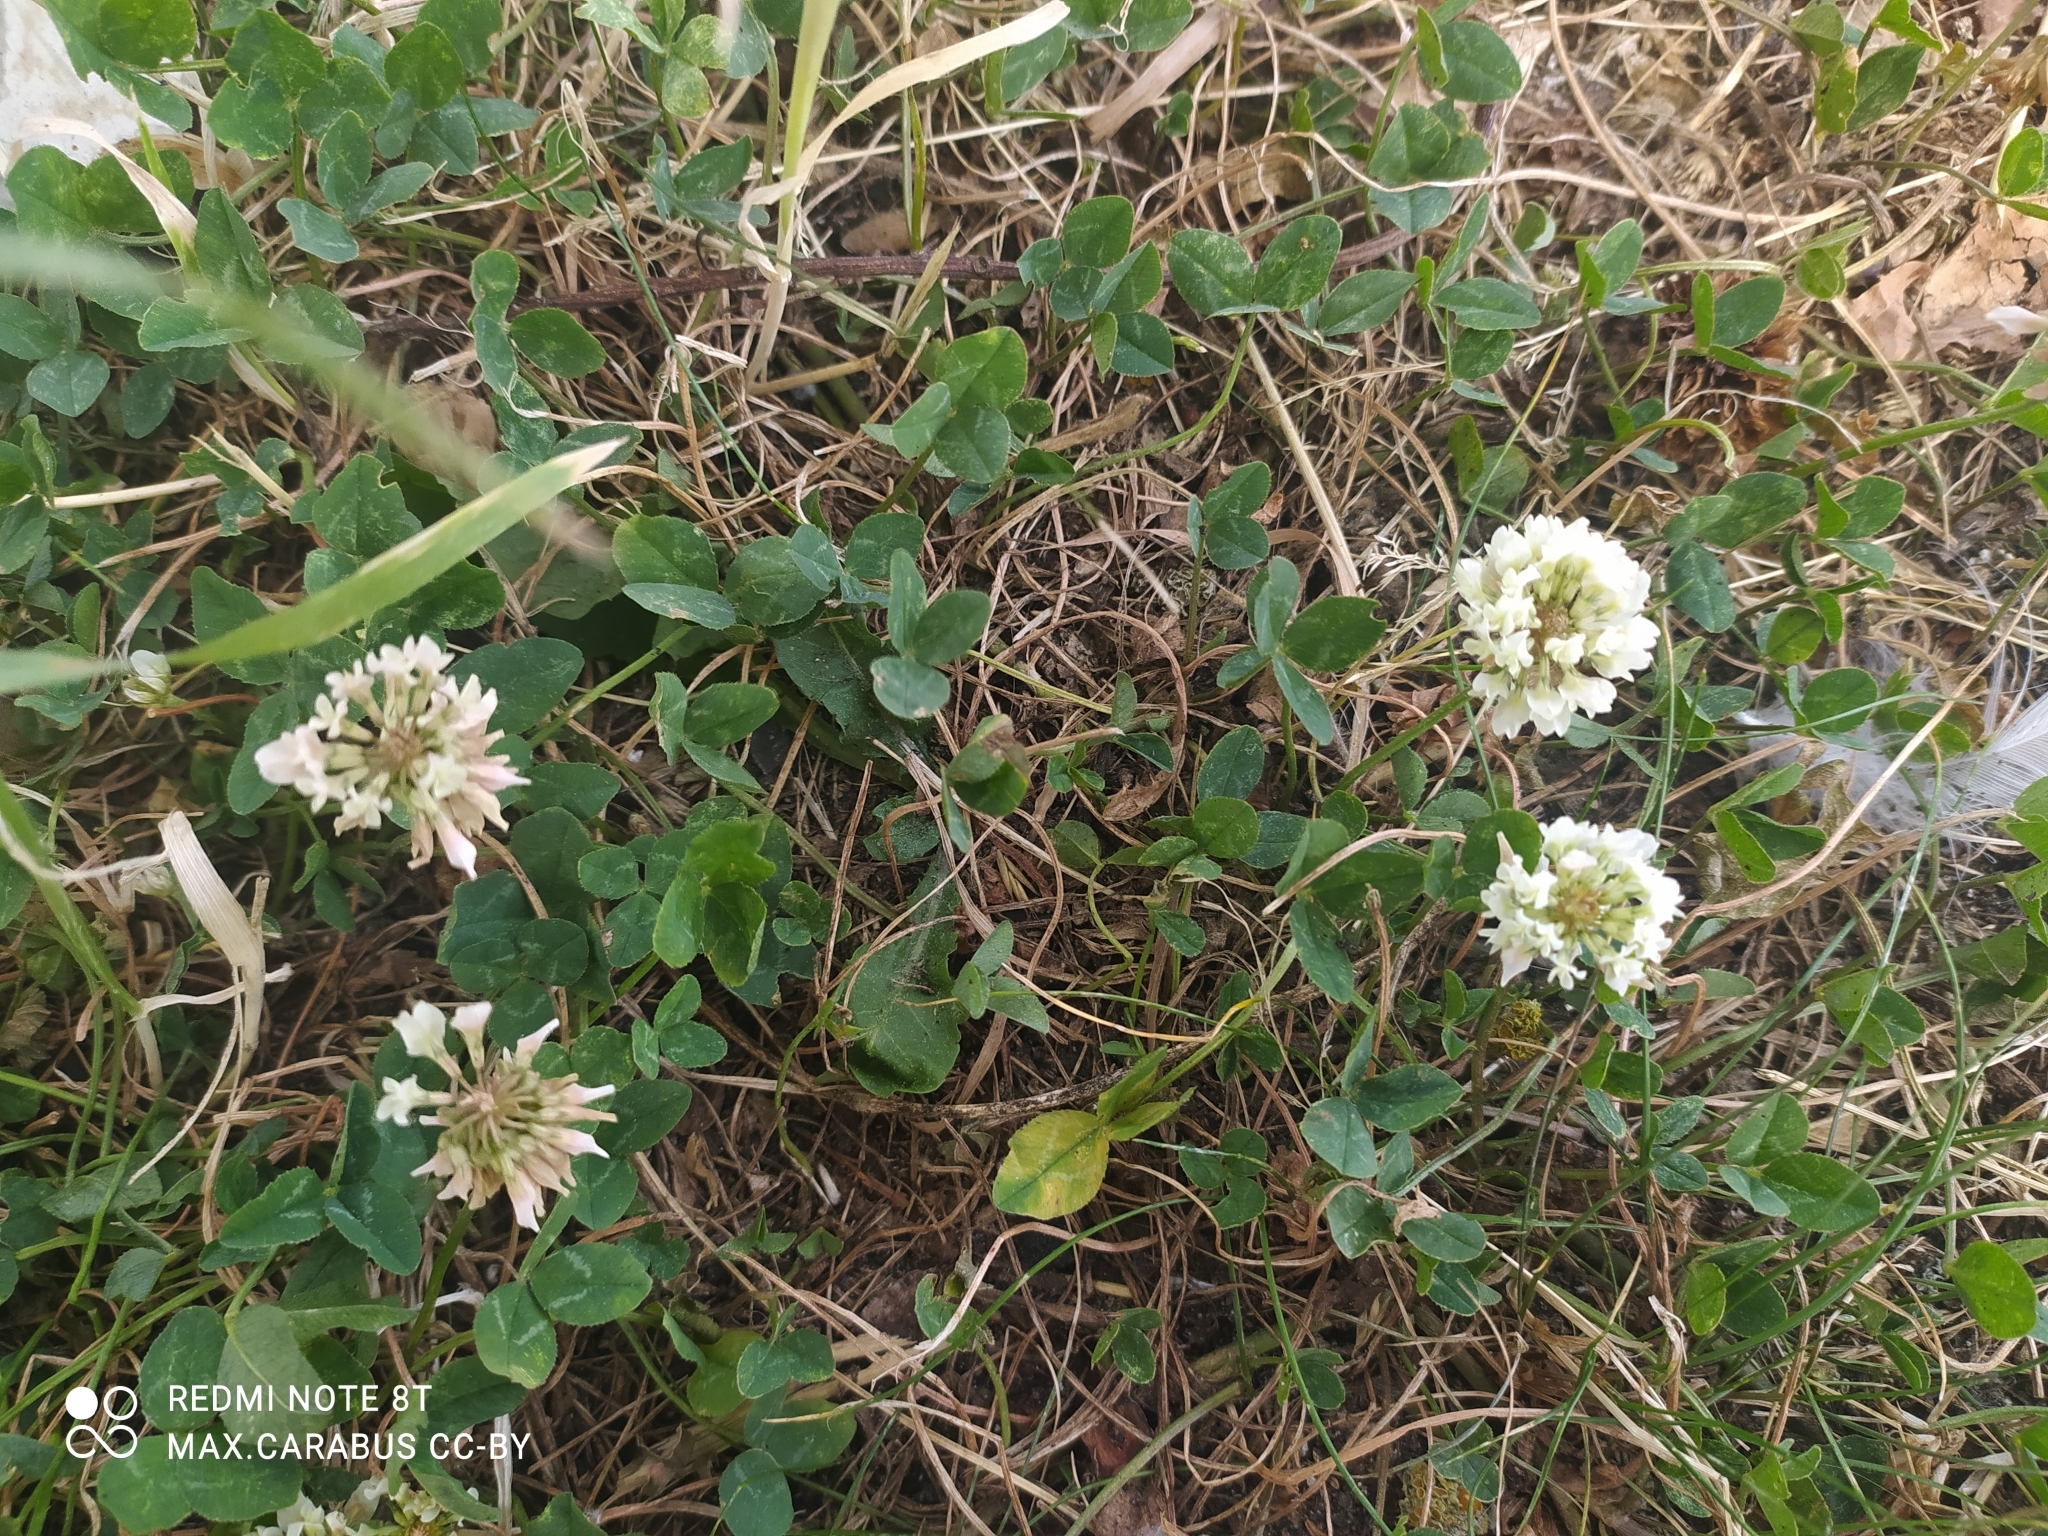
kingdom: Plantae
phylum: Tracheophyta
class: Magnoliopsida
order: Fabales
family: Fabaceae
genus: Trifolium
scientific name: Trifolium repens
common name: White clover
